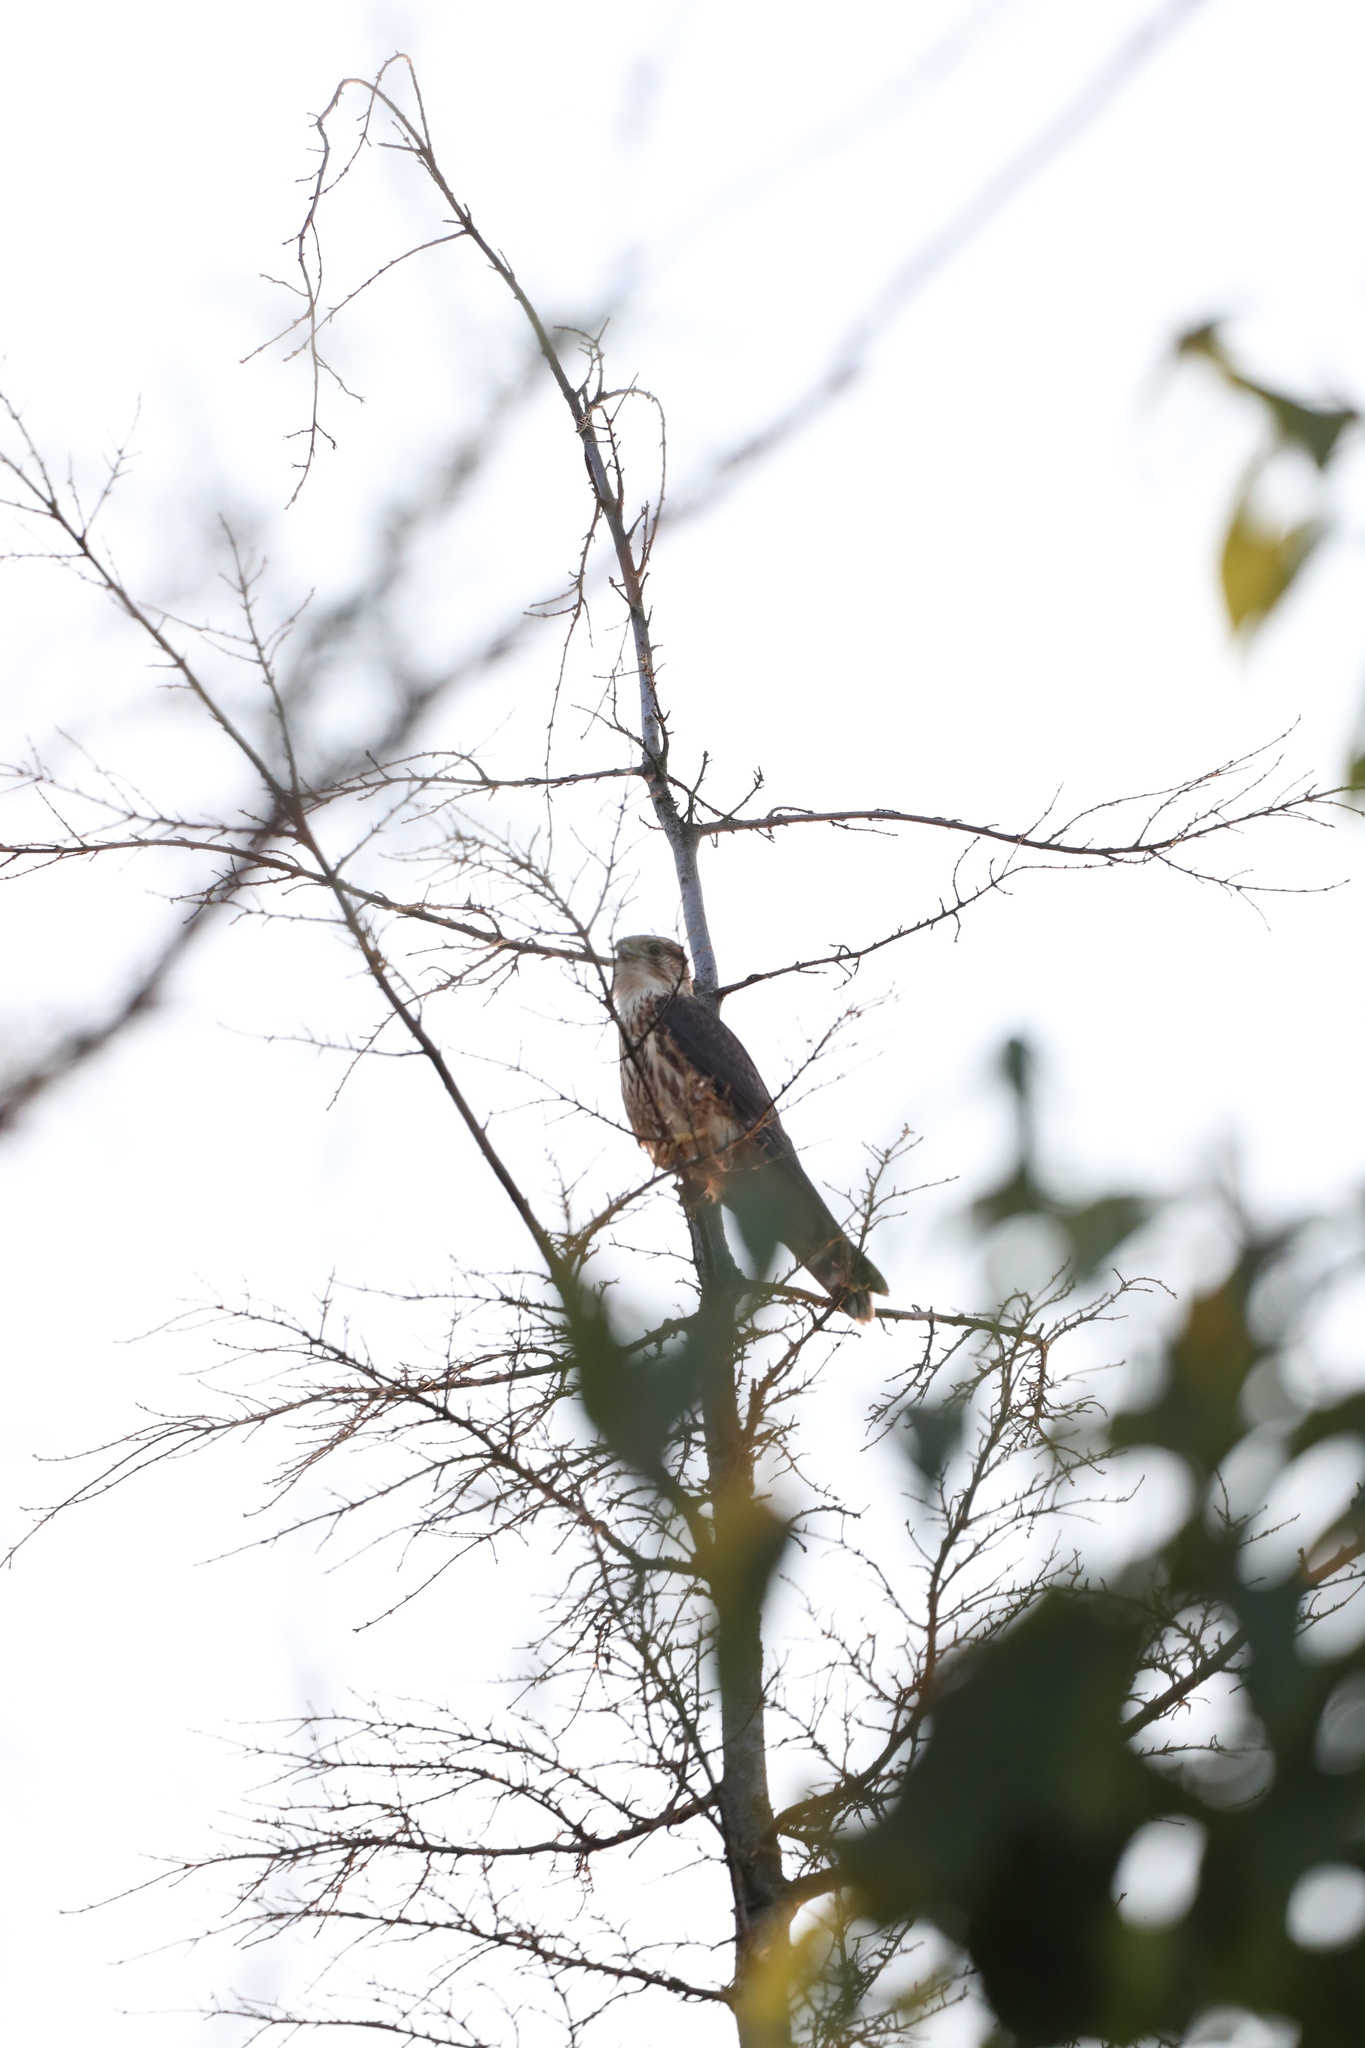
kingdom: Animalia
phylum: Chordata
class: Aves
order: Falconiformes
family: Falconidae
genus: Falco
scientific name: Falco columbarius
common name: Merlin
